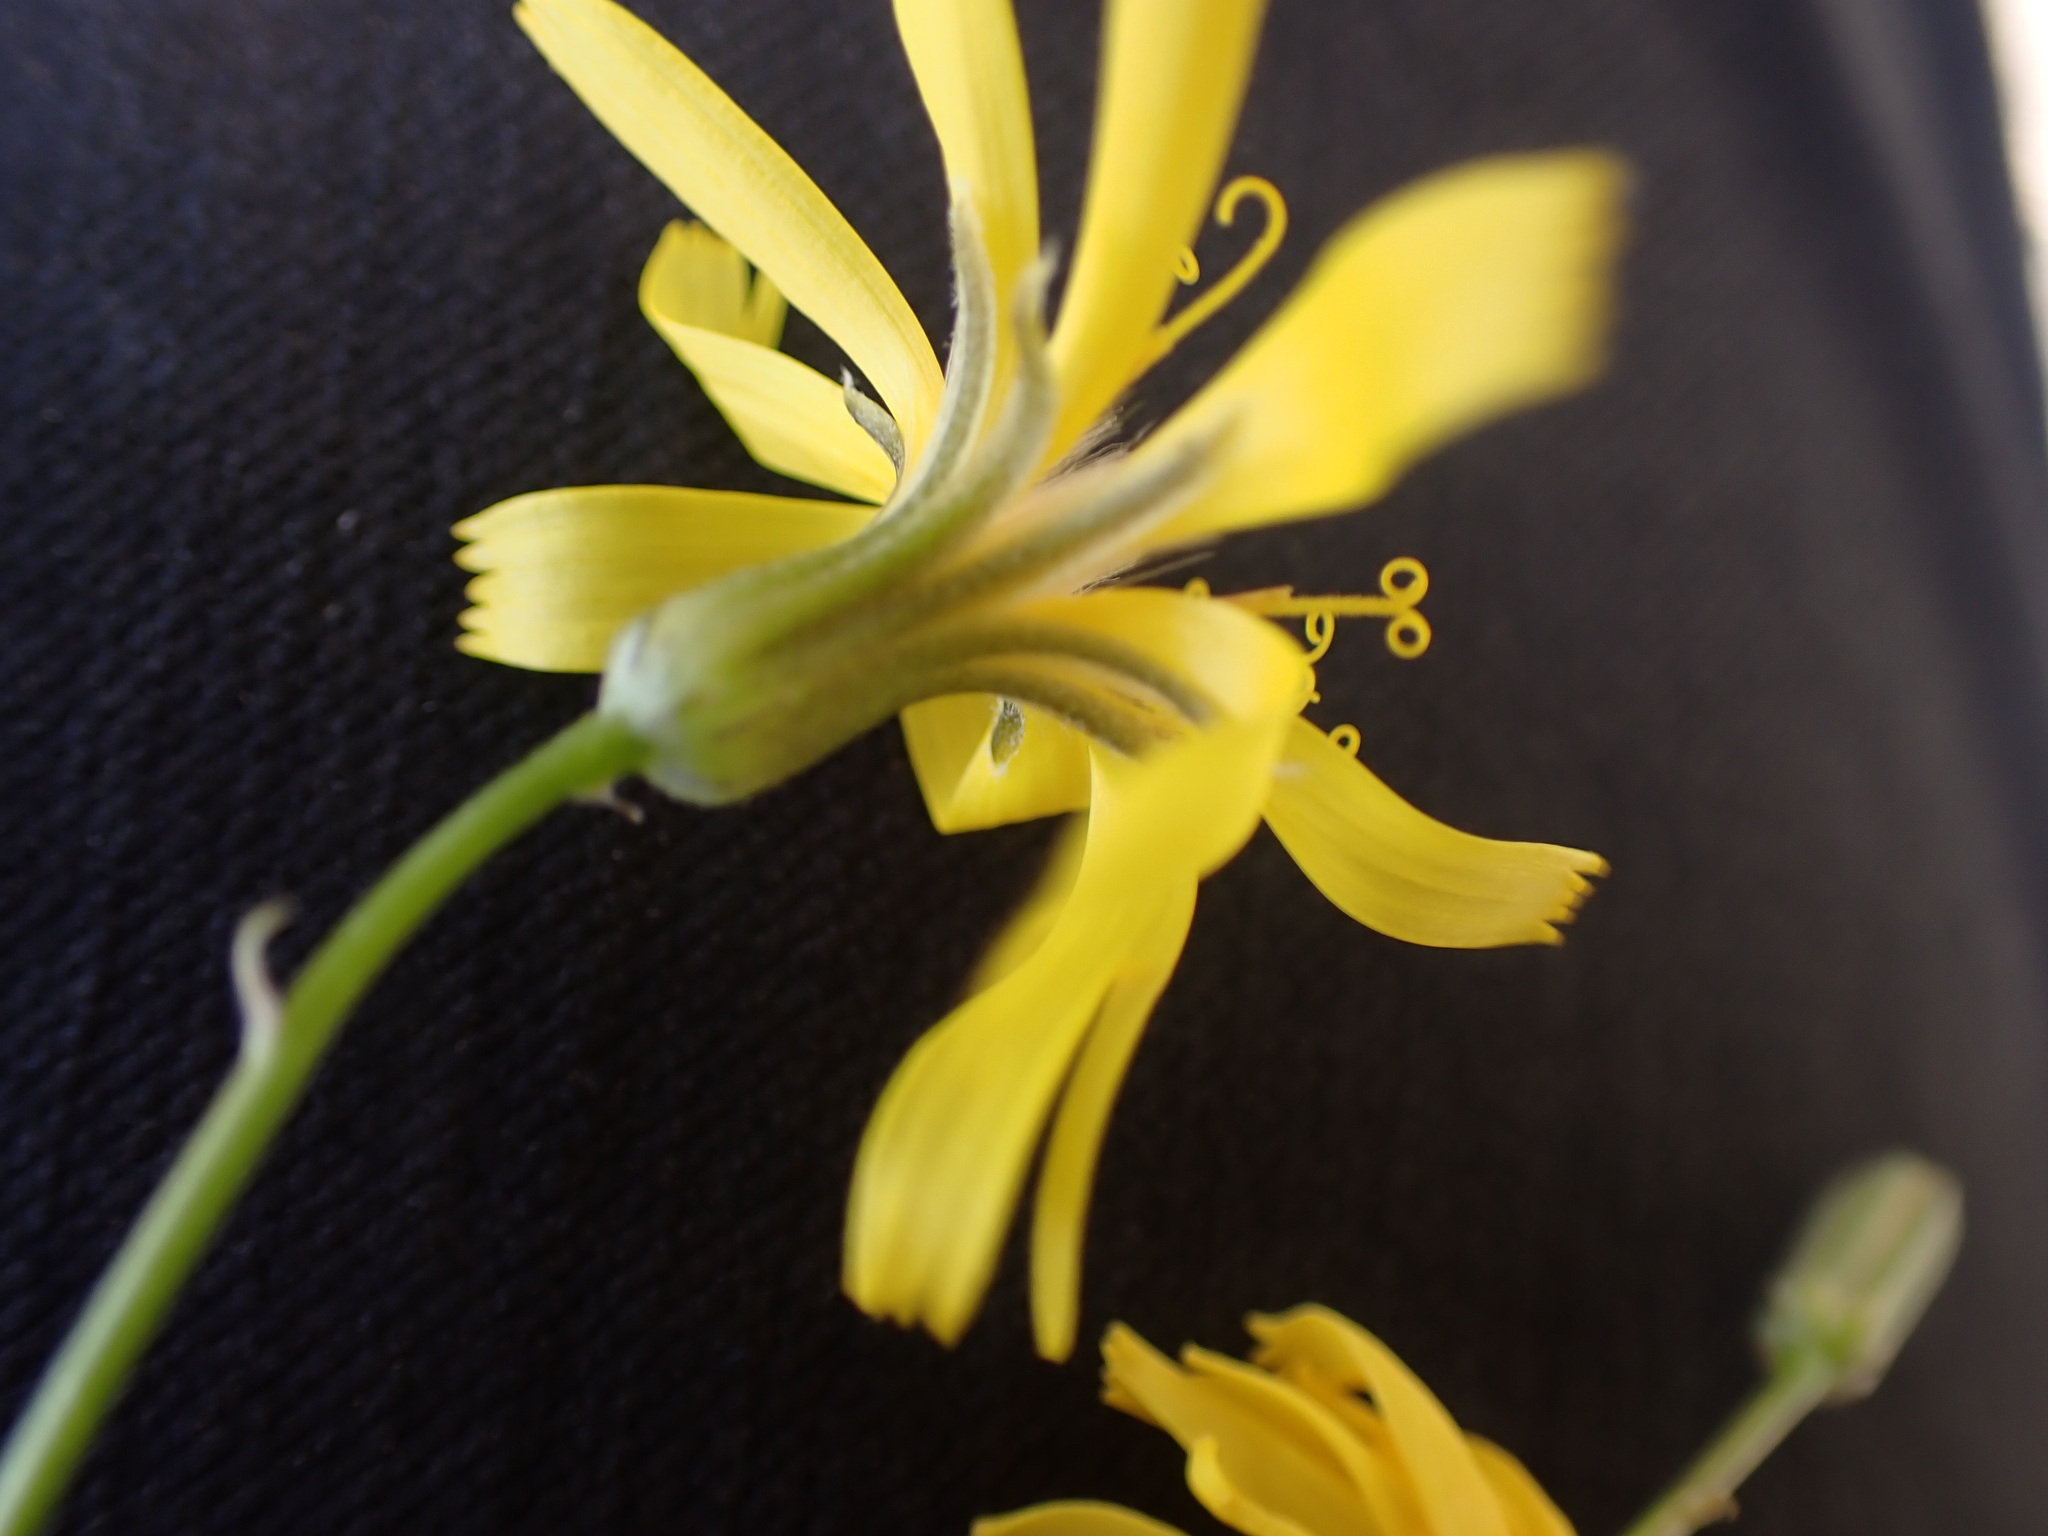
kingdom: Plantae
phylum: Tracheophyta
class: Magnoliopsida
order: Asterales
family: Asteraceae
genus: Crepis
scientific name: Crepis atribarba
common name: Dark hawk's-beard
